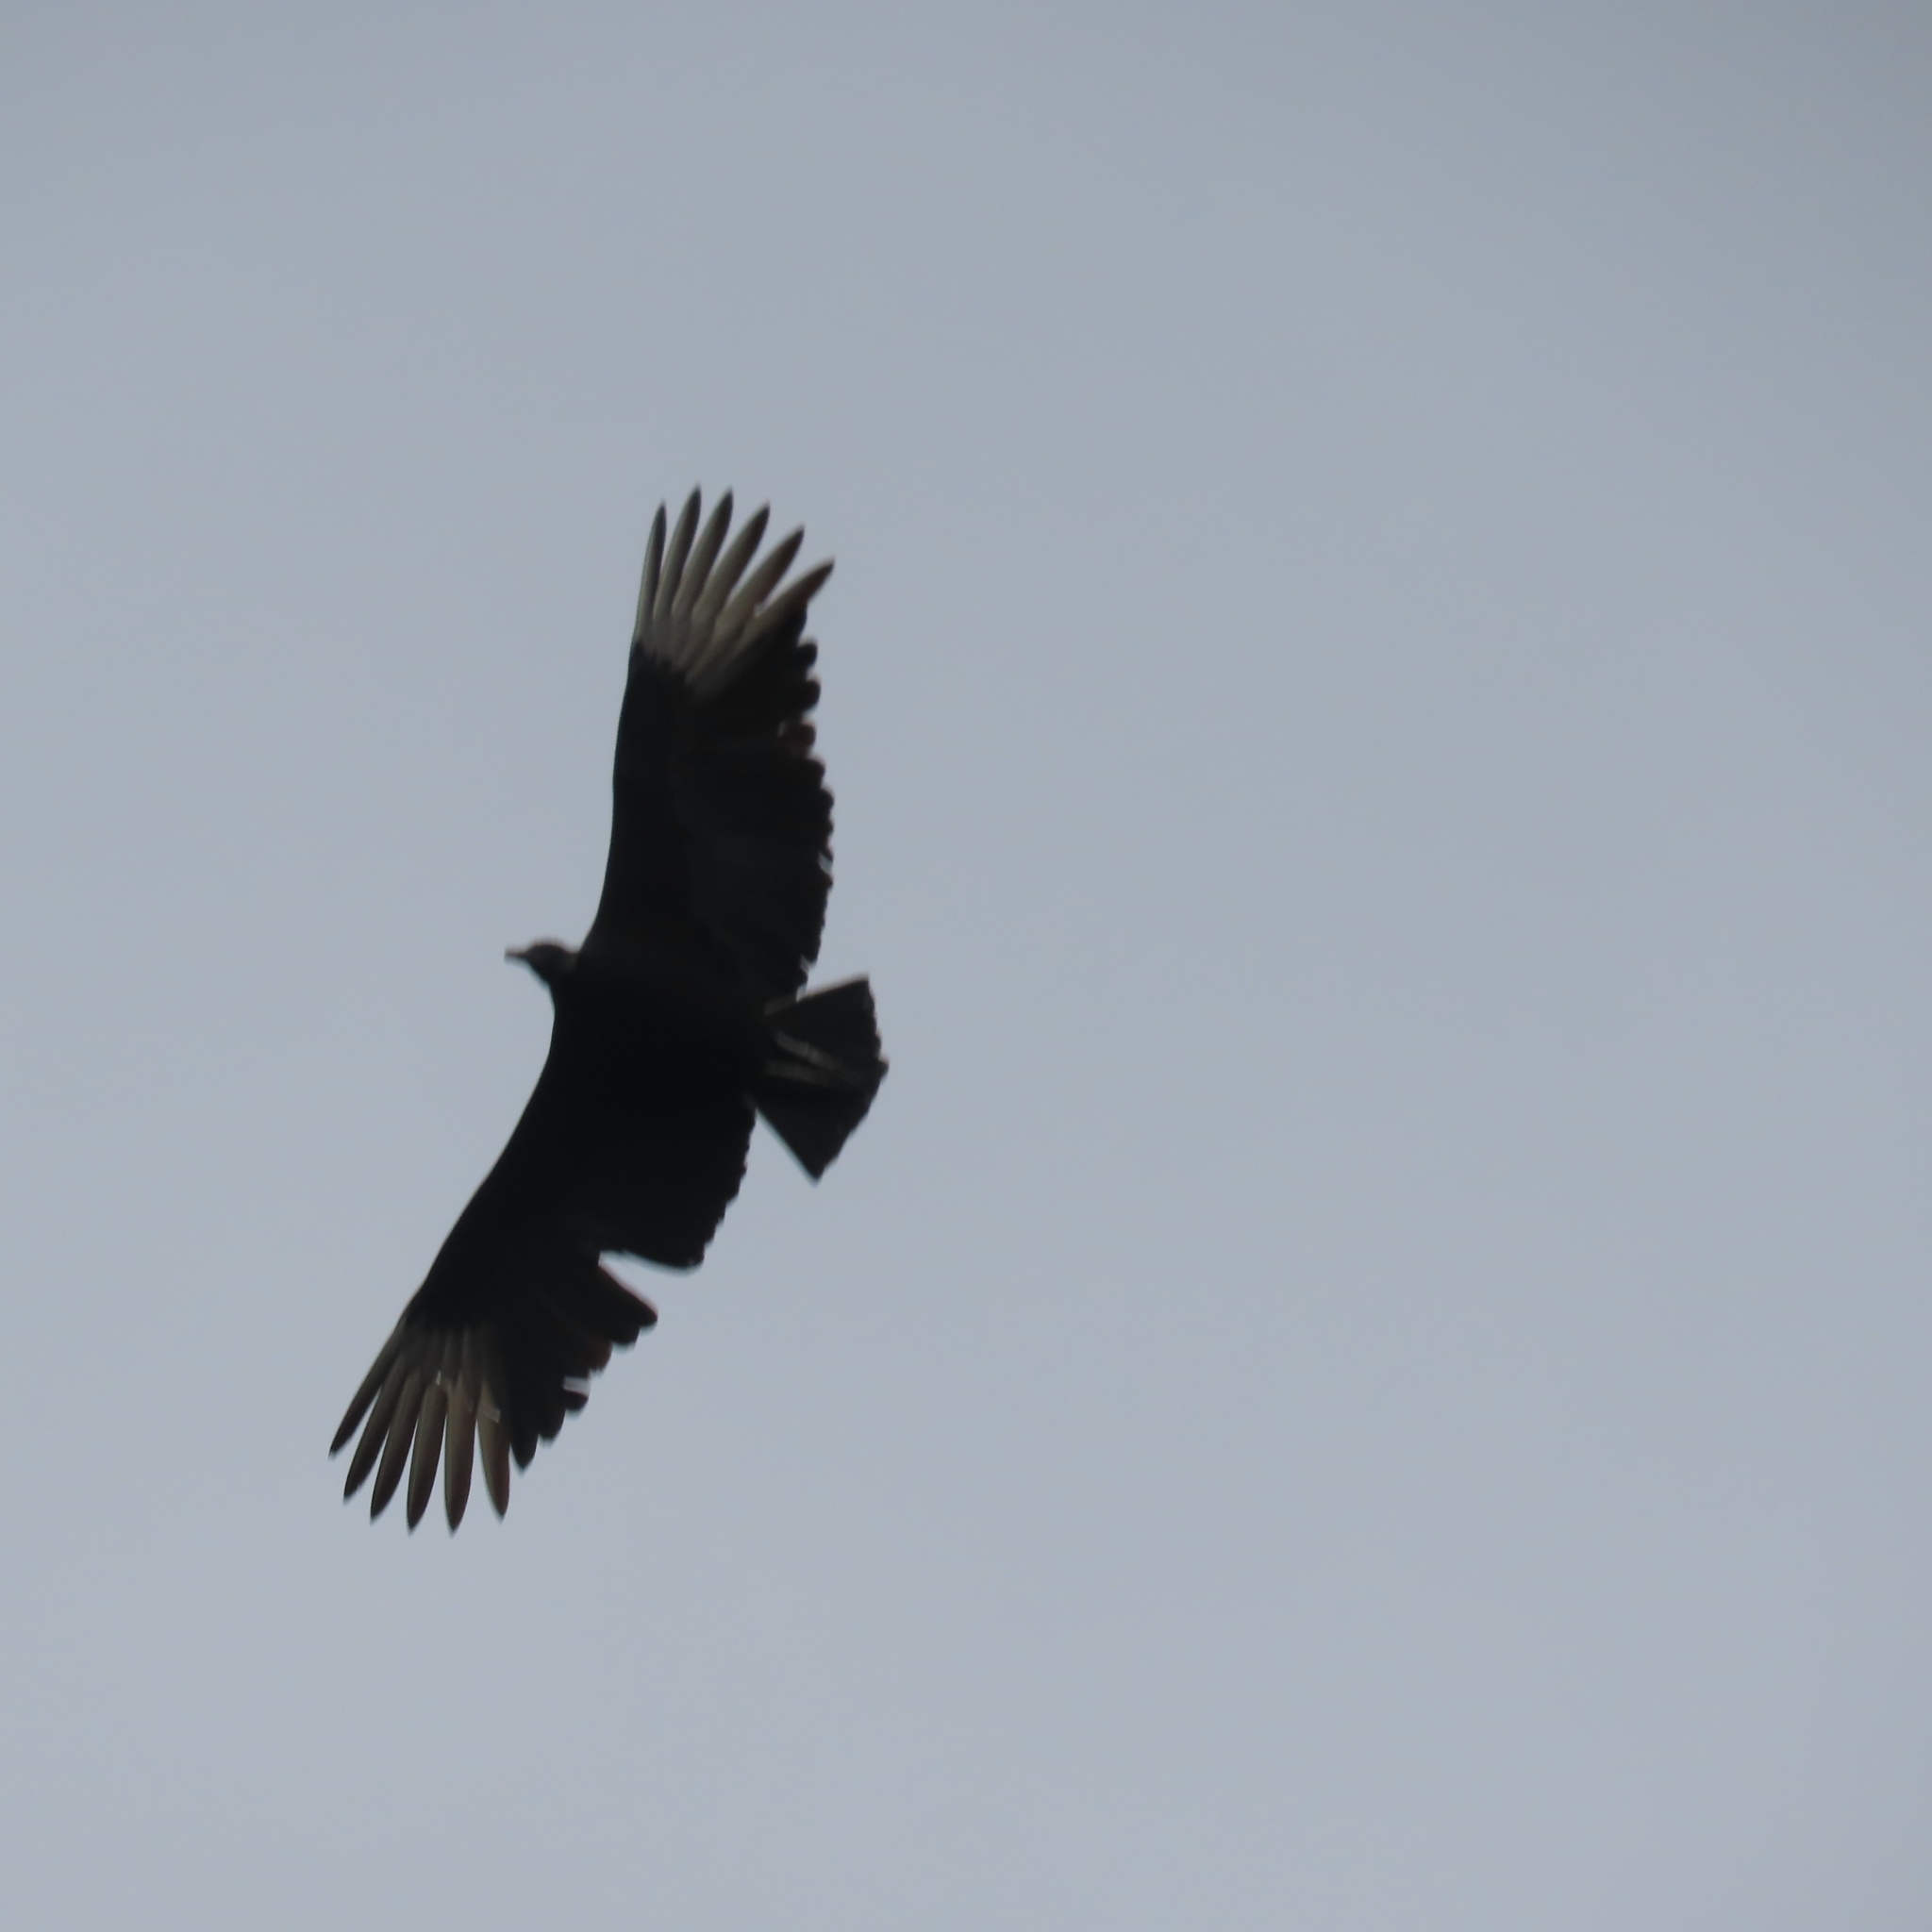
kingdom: Animalia
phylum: Chordata
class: Aves
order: Accipitriformes
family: Cathartidae
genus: Coragyps
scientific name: Coragyps atratus
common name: Black vulture
